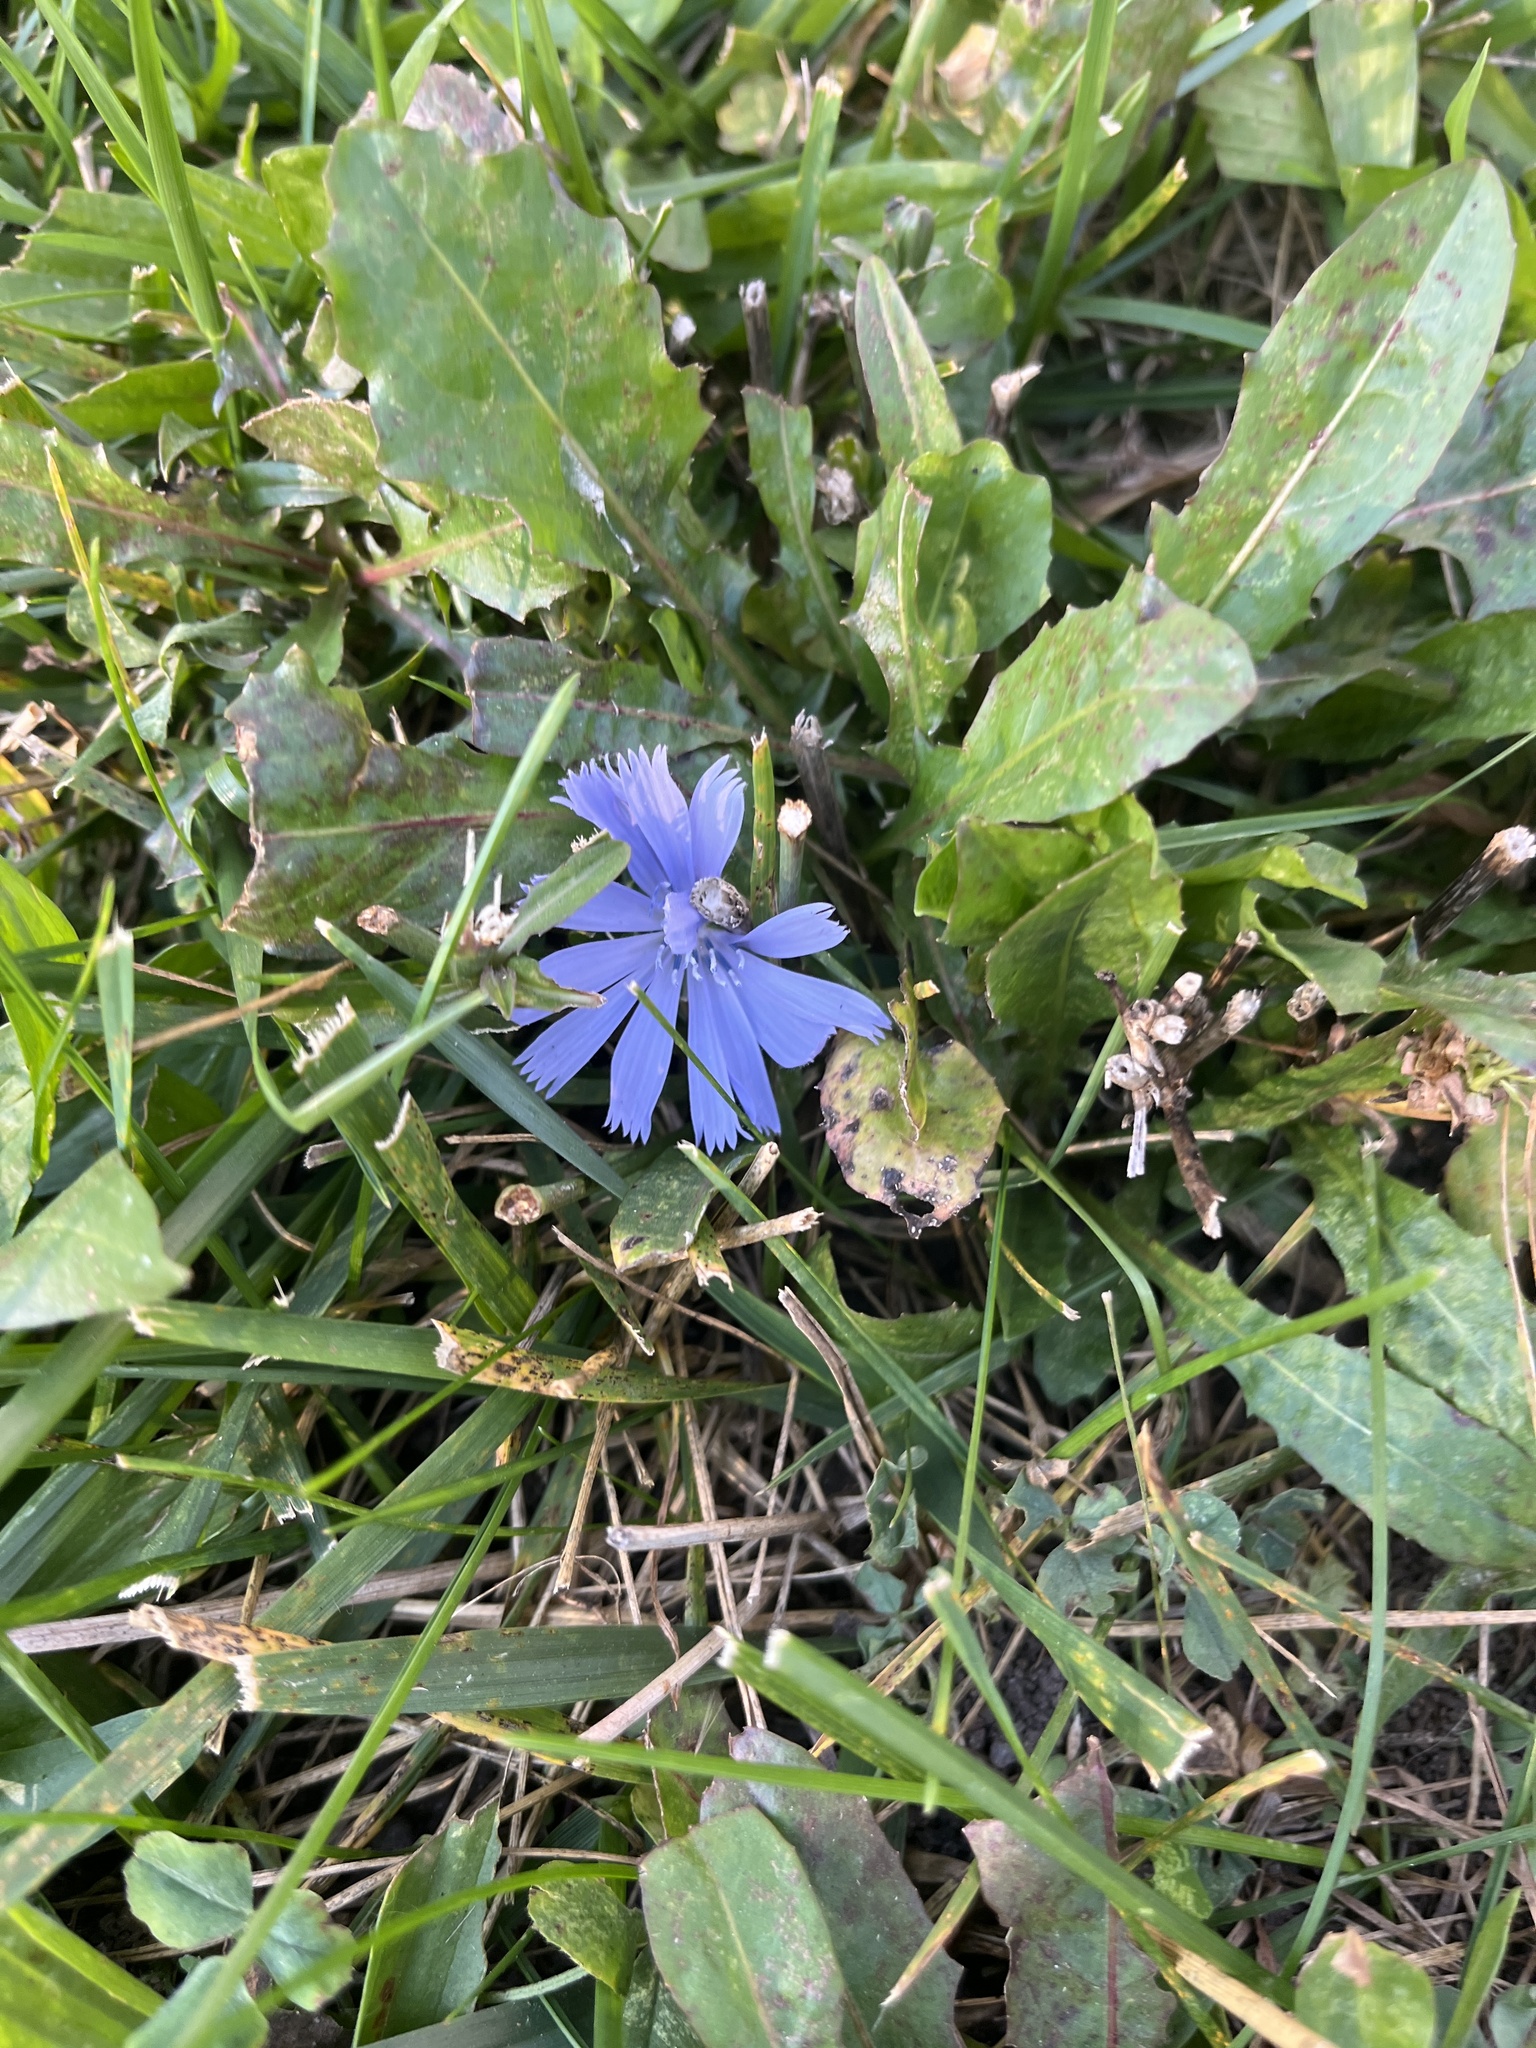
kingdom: Plantae
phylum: Tracheophyta
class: Magnoliopsida
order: Asterales
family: Asteraceae
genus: Cichorium
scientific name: Cichorium intybus
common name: Chicory
